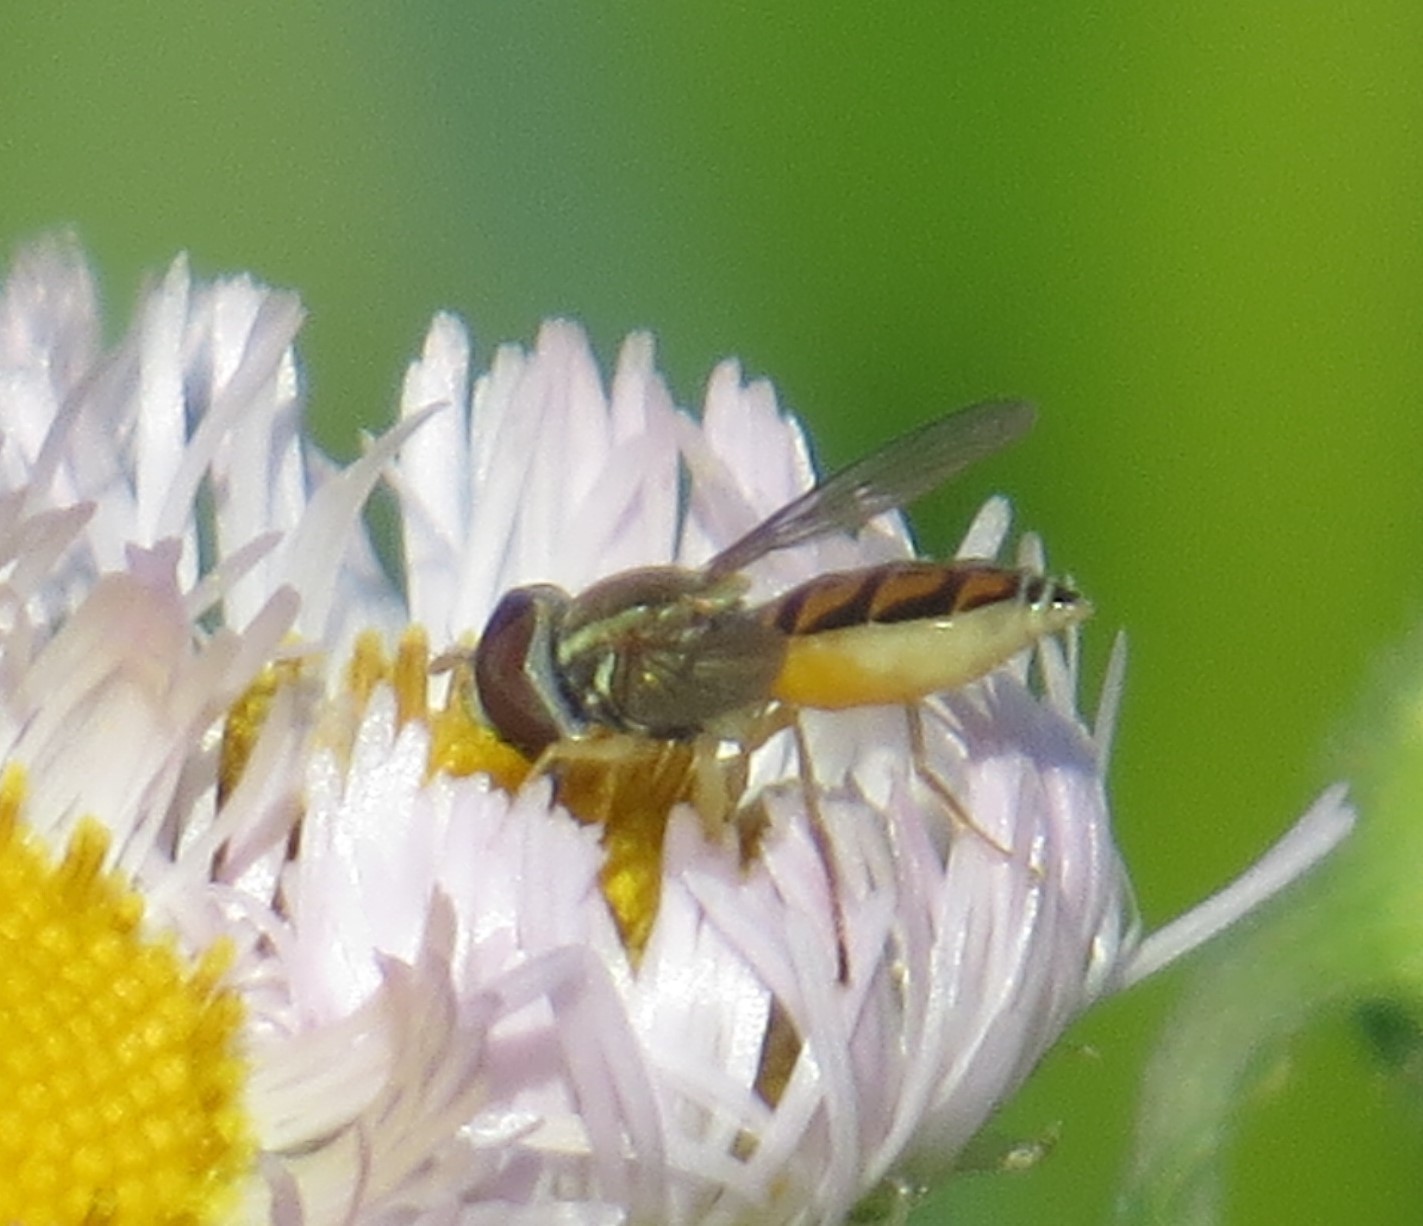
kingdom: Animalia
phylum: Arthropoda
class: Insecta
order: Diptera
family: Syrphidae
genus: Toxomerus
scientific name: Toxomerus marginatus
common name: Syrphid fly
